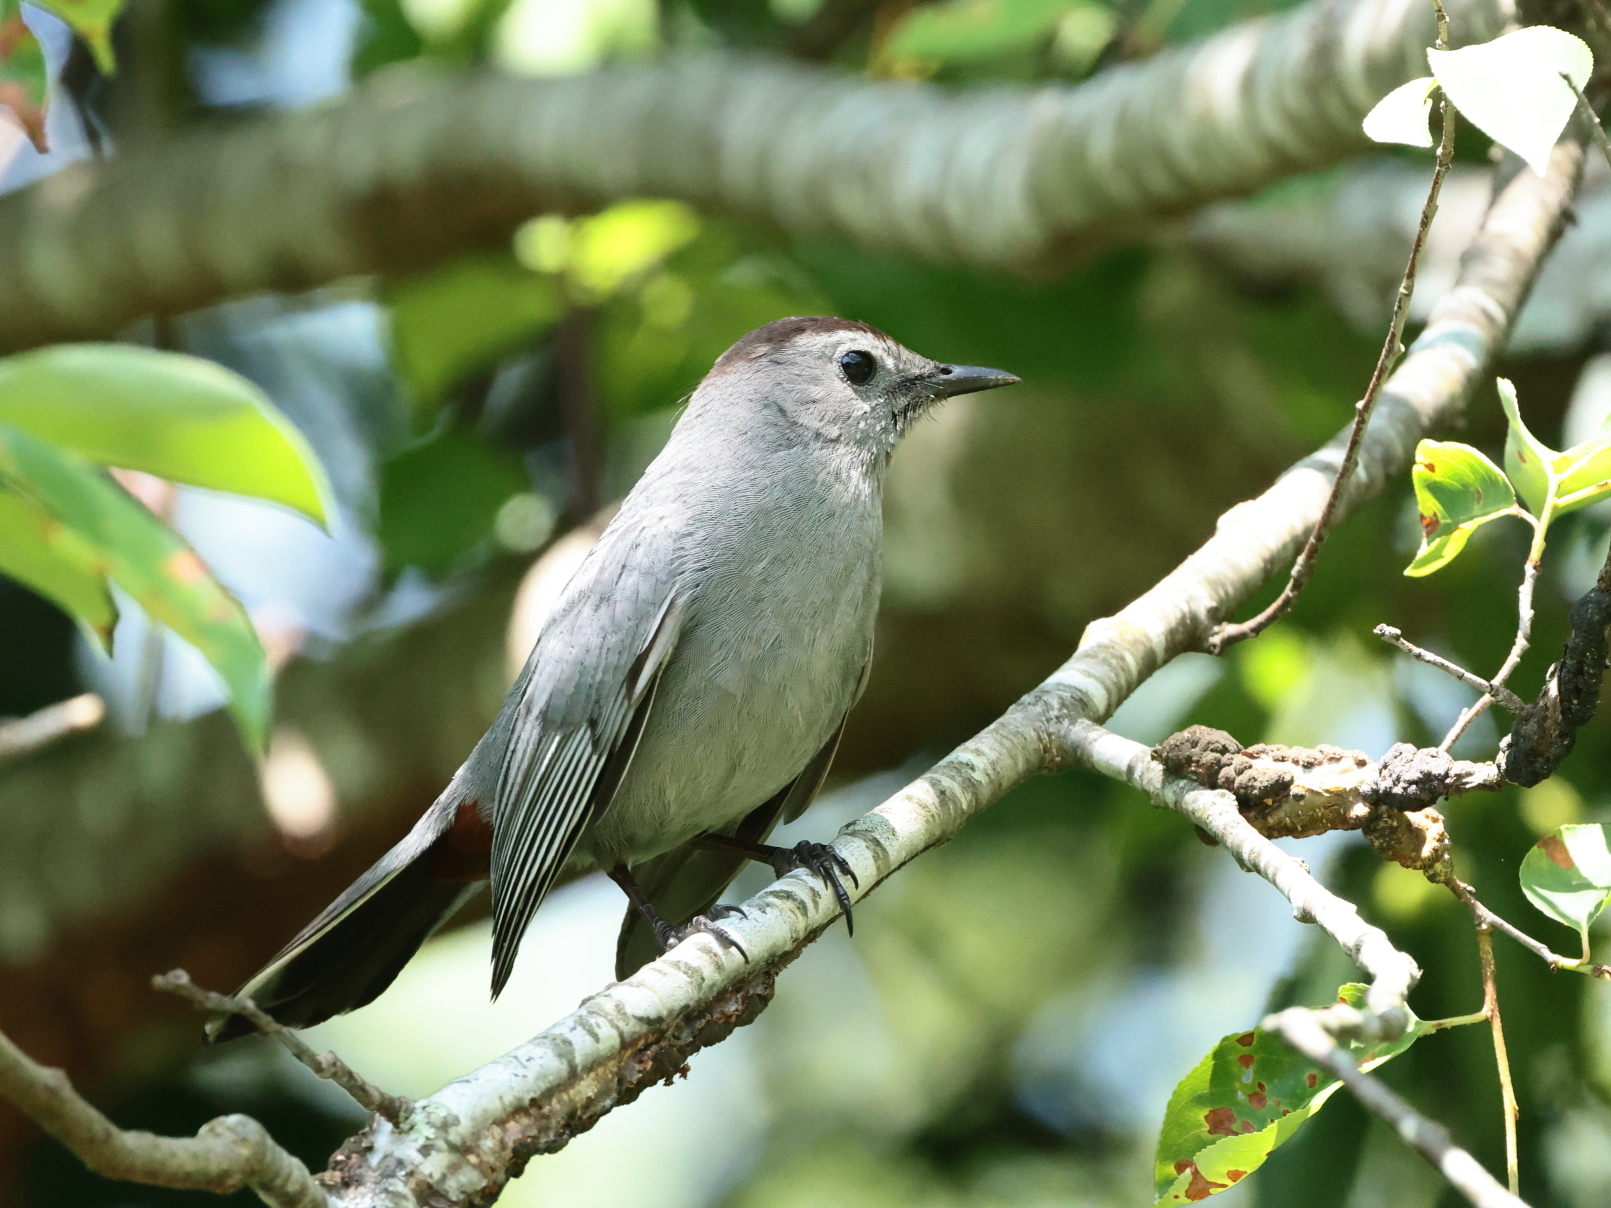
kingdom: Animalia
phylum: Chordata
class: Aves
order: Passeriformes
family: Mimidae
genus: Dumetella
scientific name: Dumetella carolinensis
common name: Gray catbird
